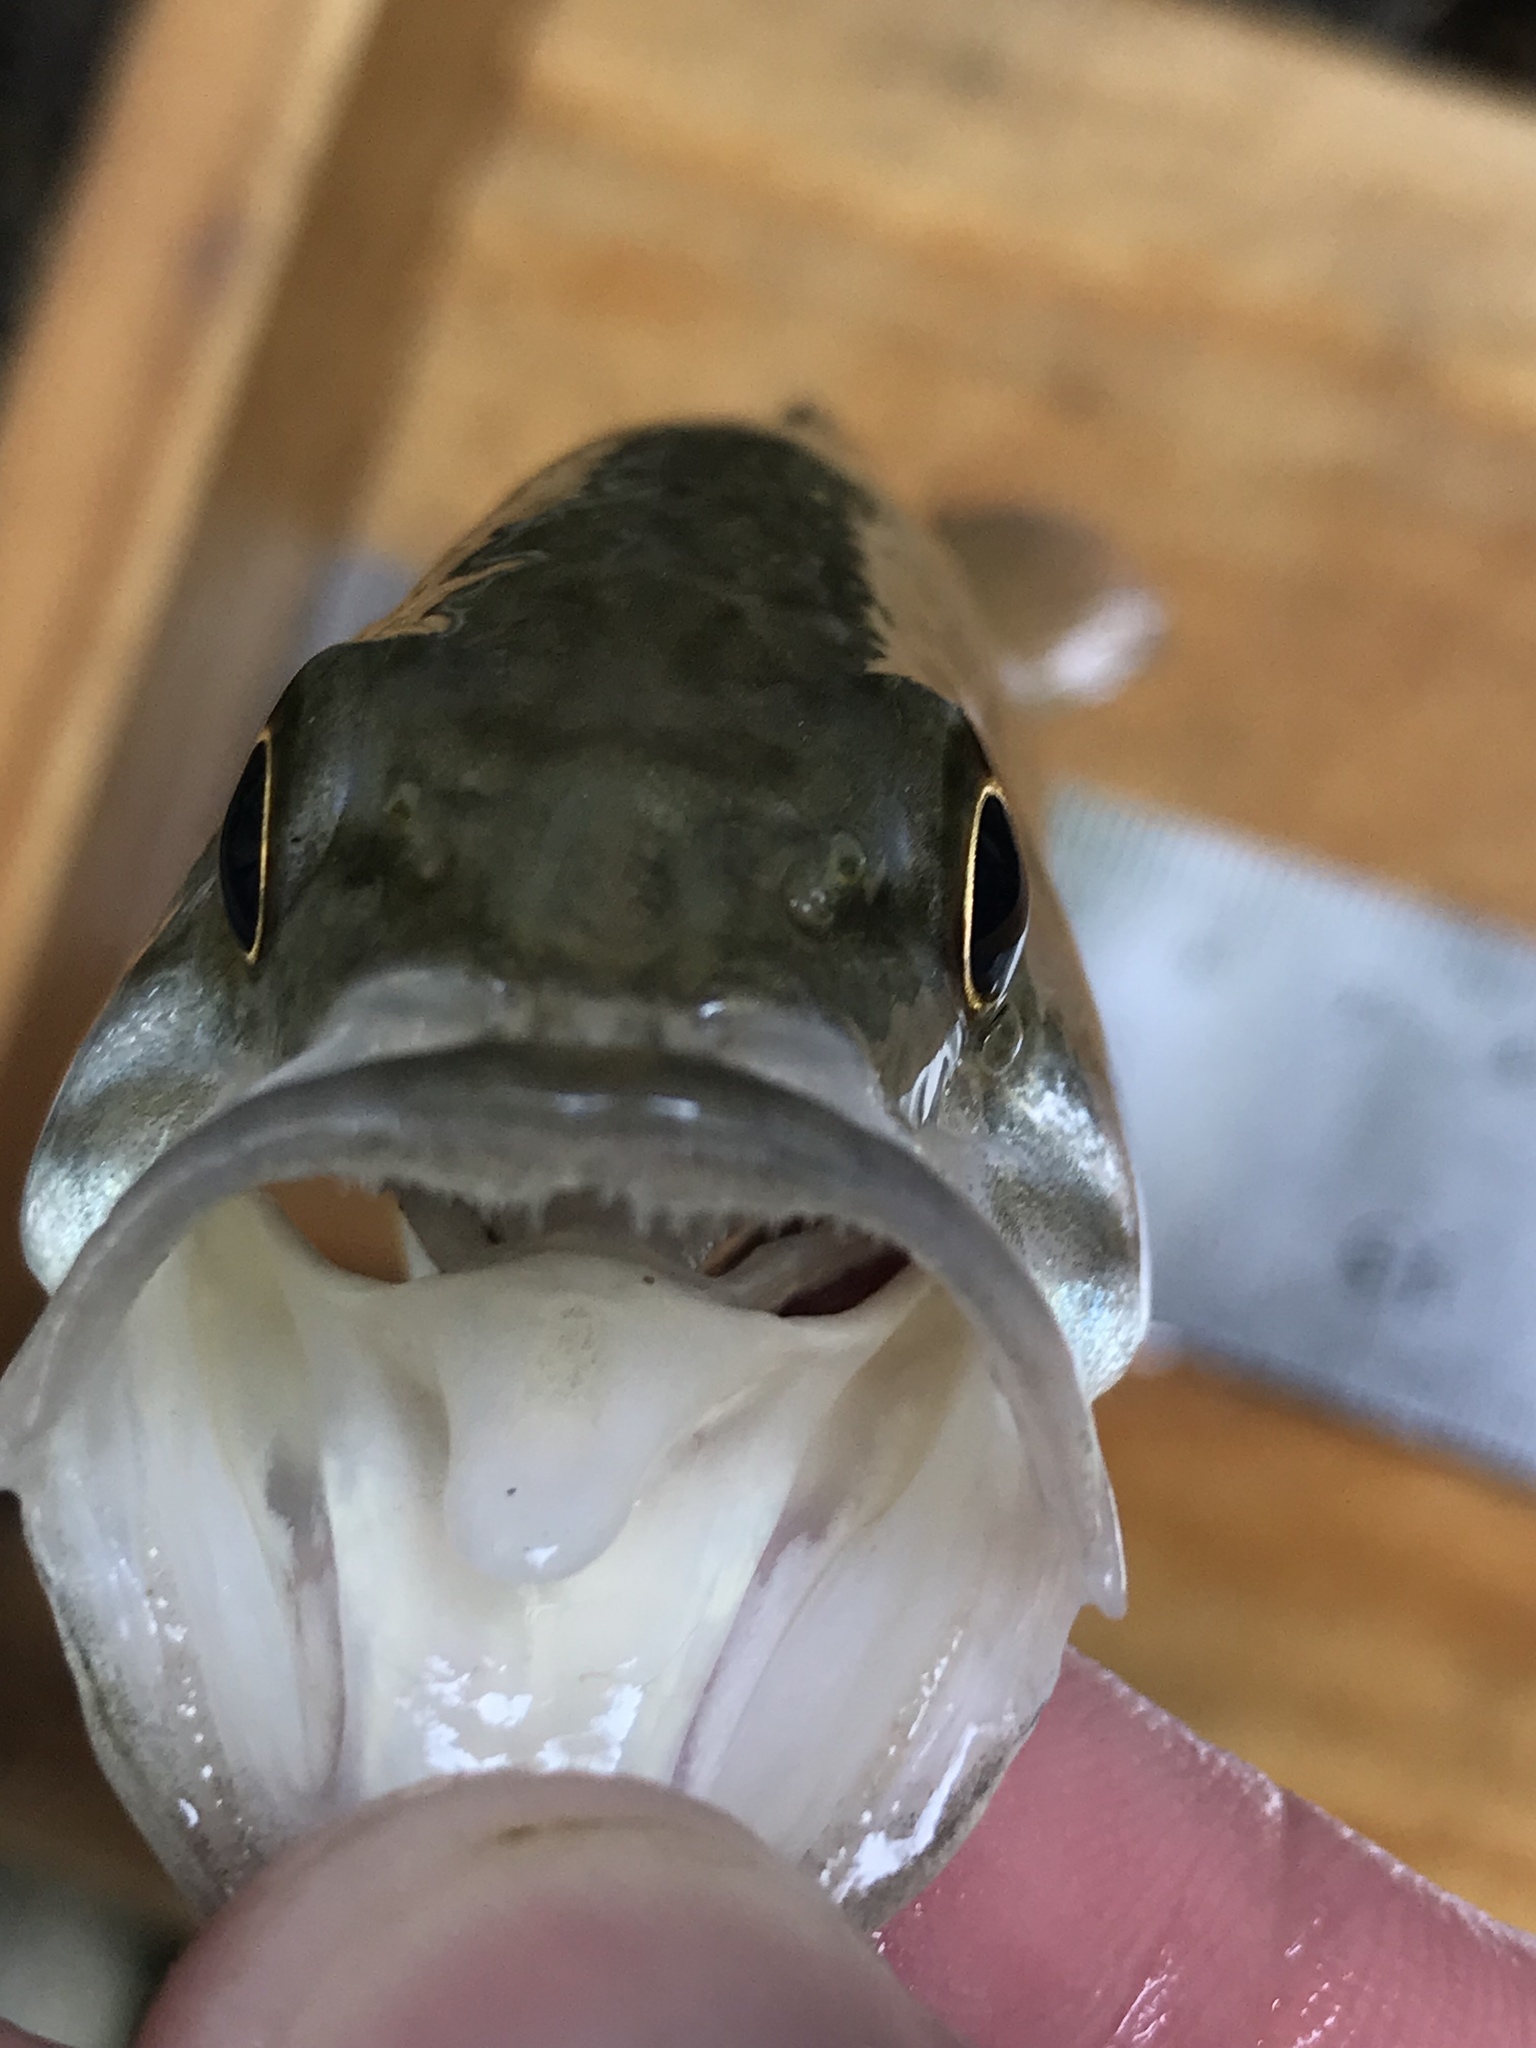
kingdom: Animalia
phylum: Chordata
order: Perciformes
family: Centrarchidae
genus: Micropterus
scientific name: Micropterus treculii
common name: Guadalupe bass
